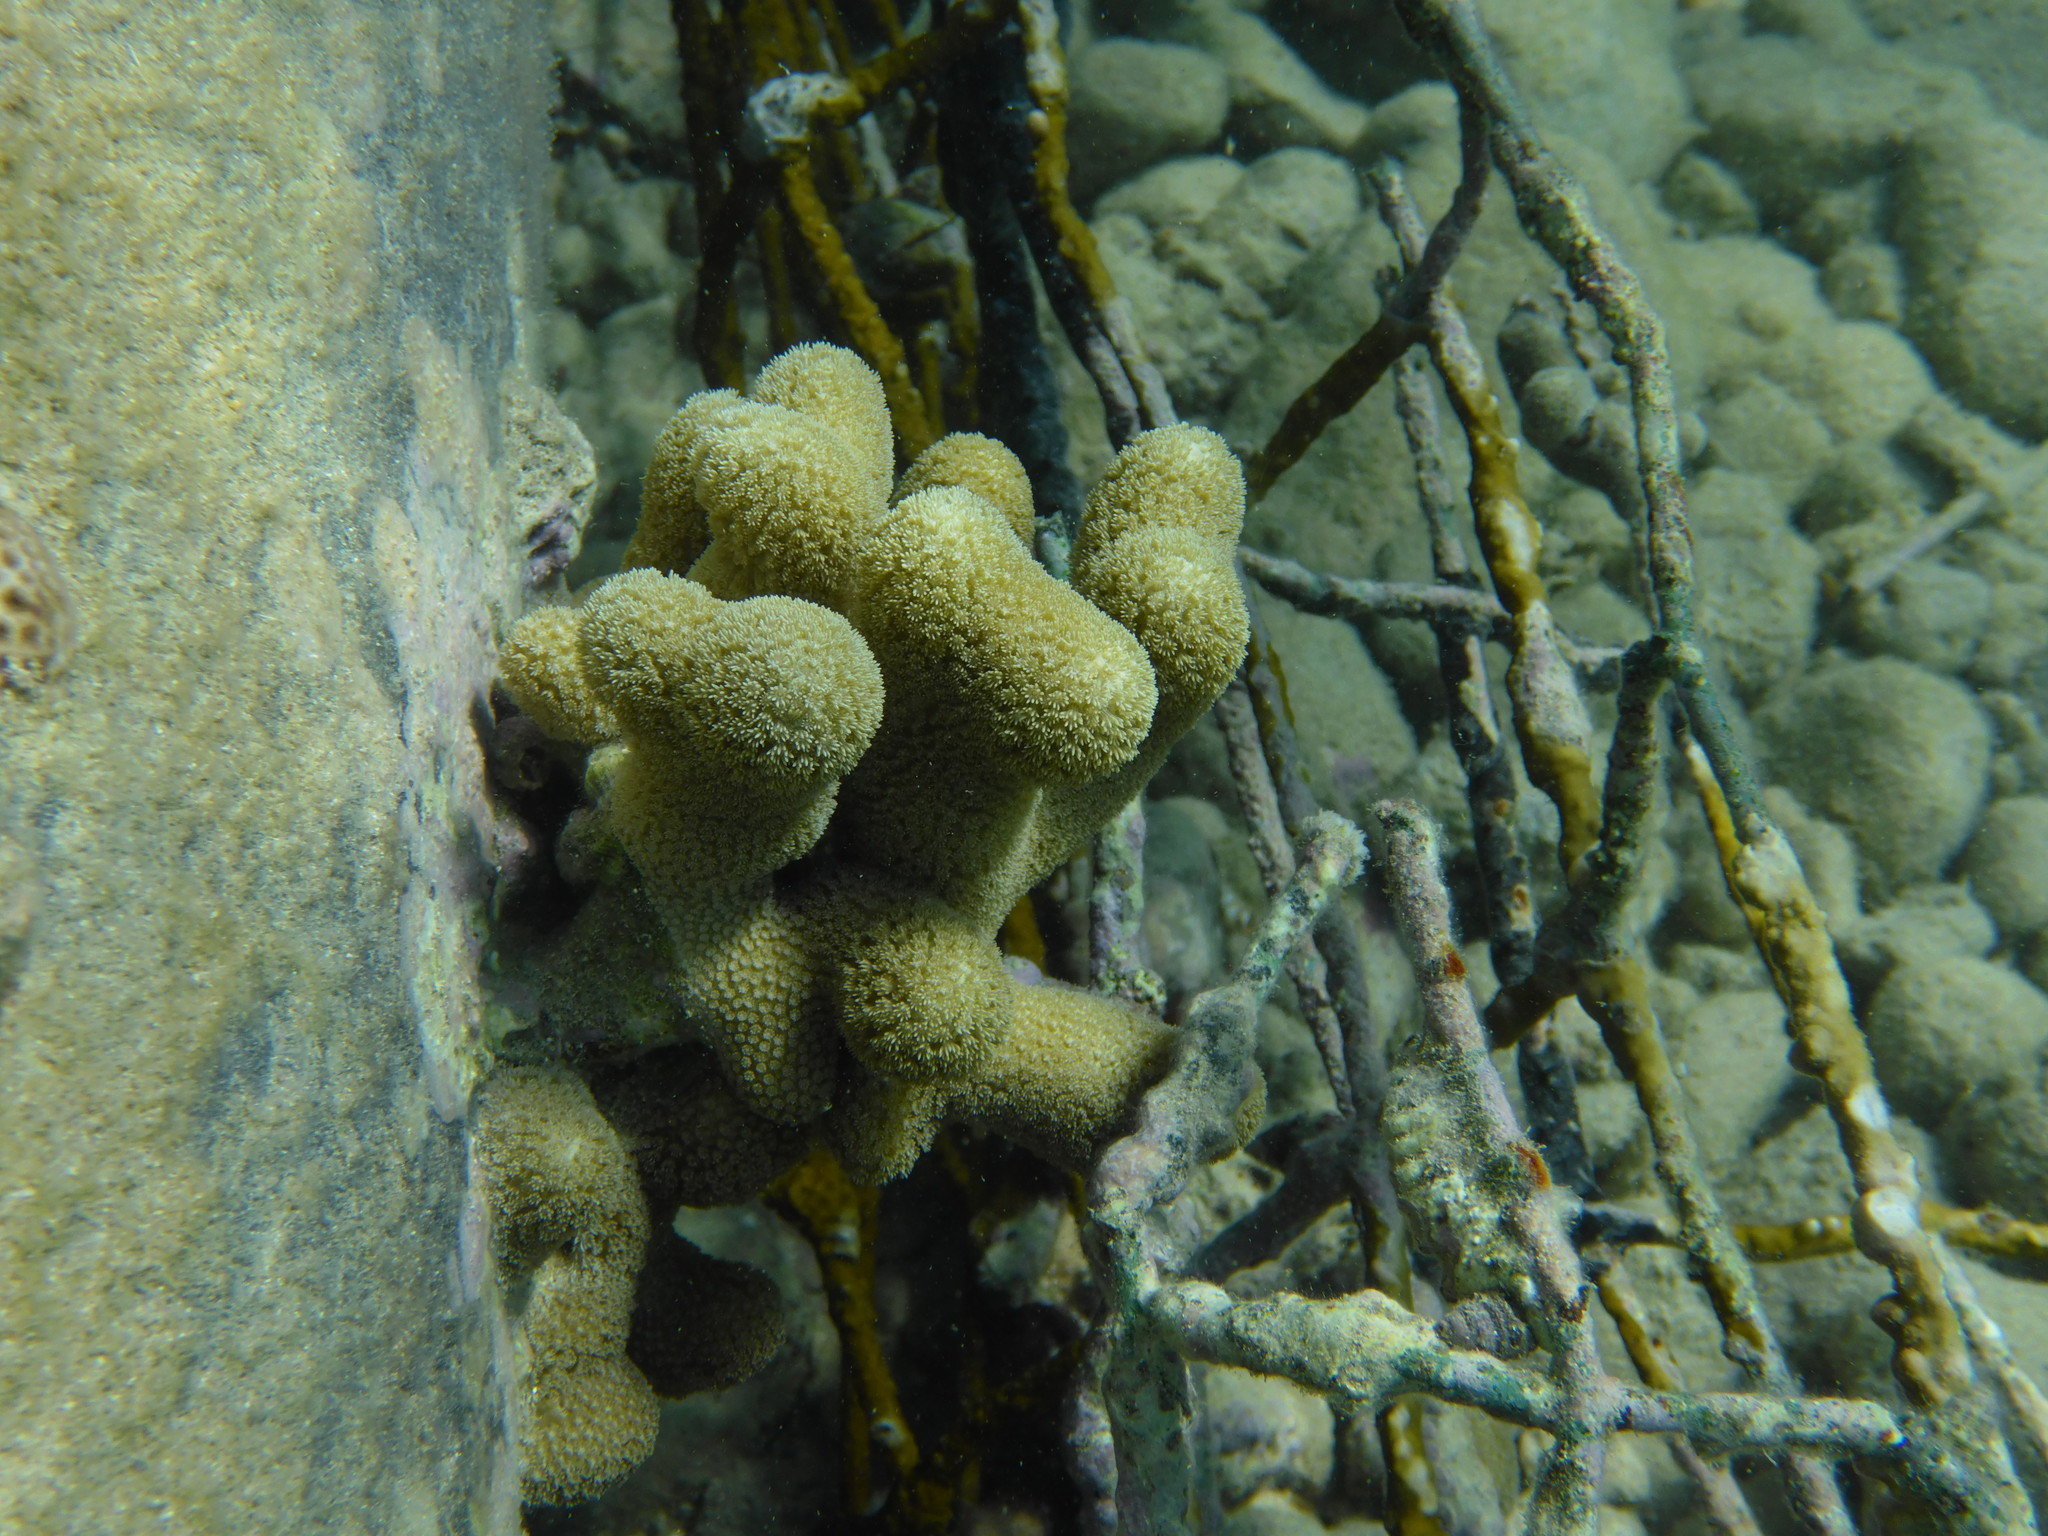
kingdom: Animalia
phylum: Cnidaria
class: Anthozoa
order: Scleractinia
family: Poritidae
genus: Porites
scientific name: Porites porites
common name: Finger coral
